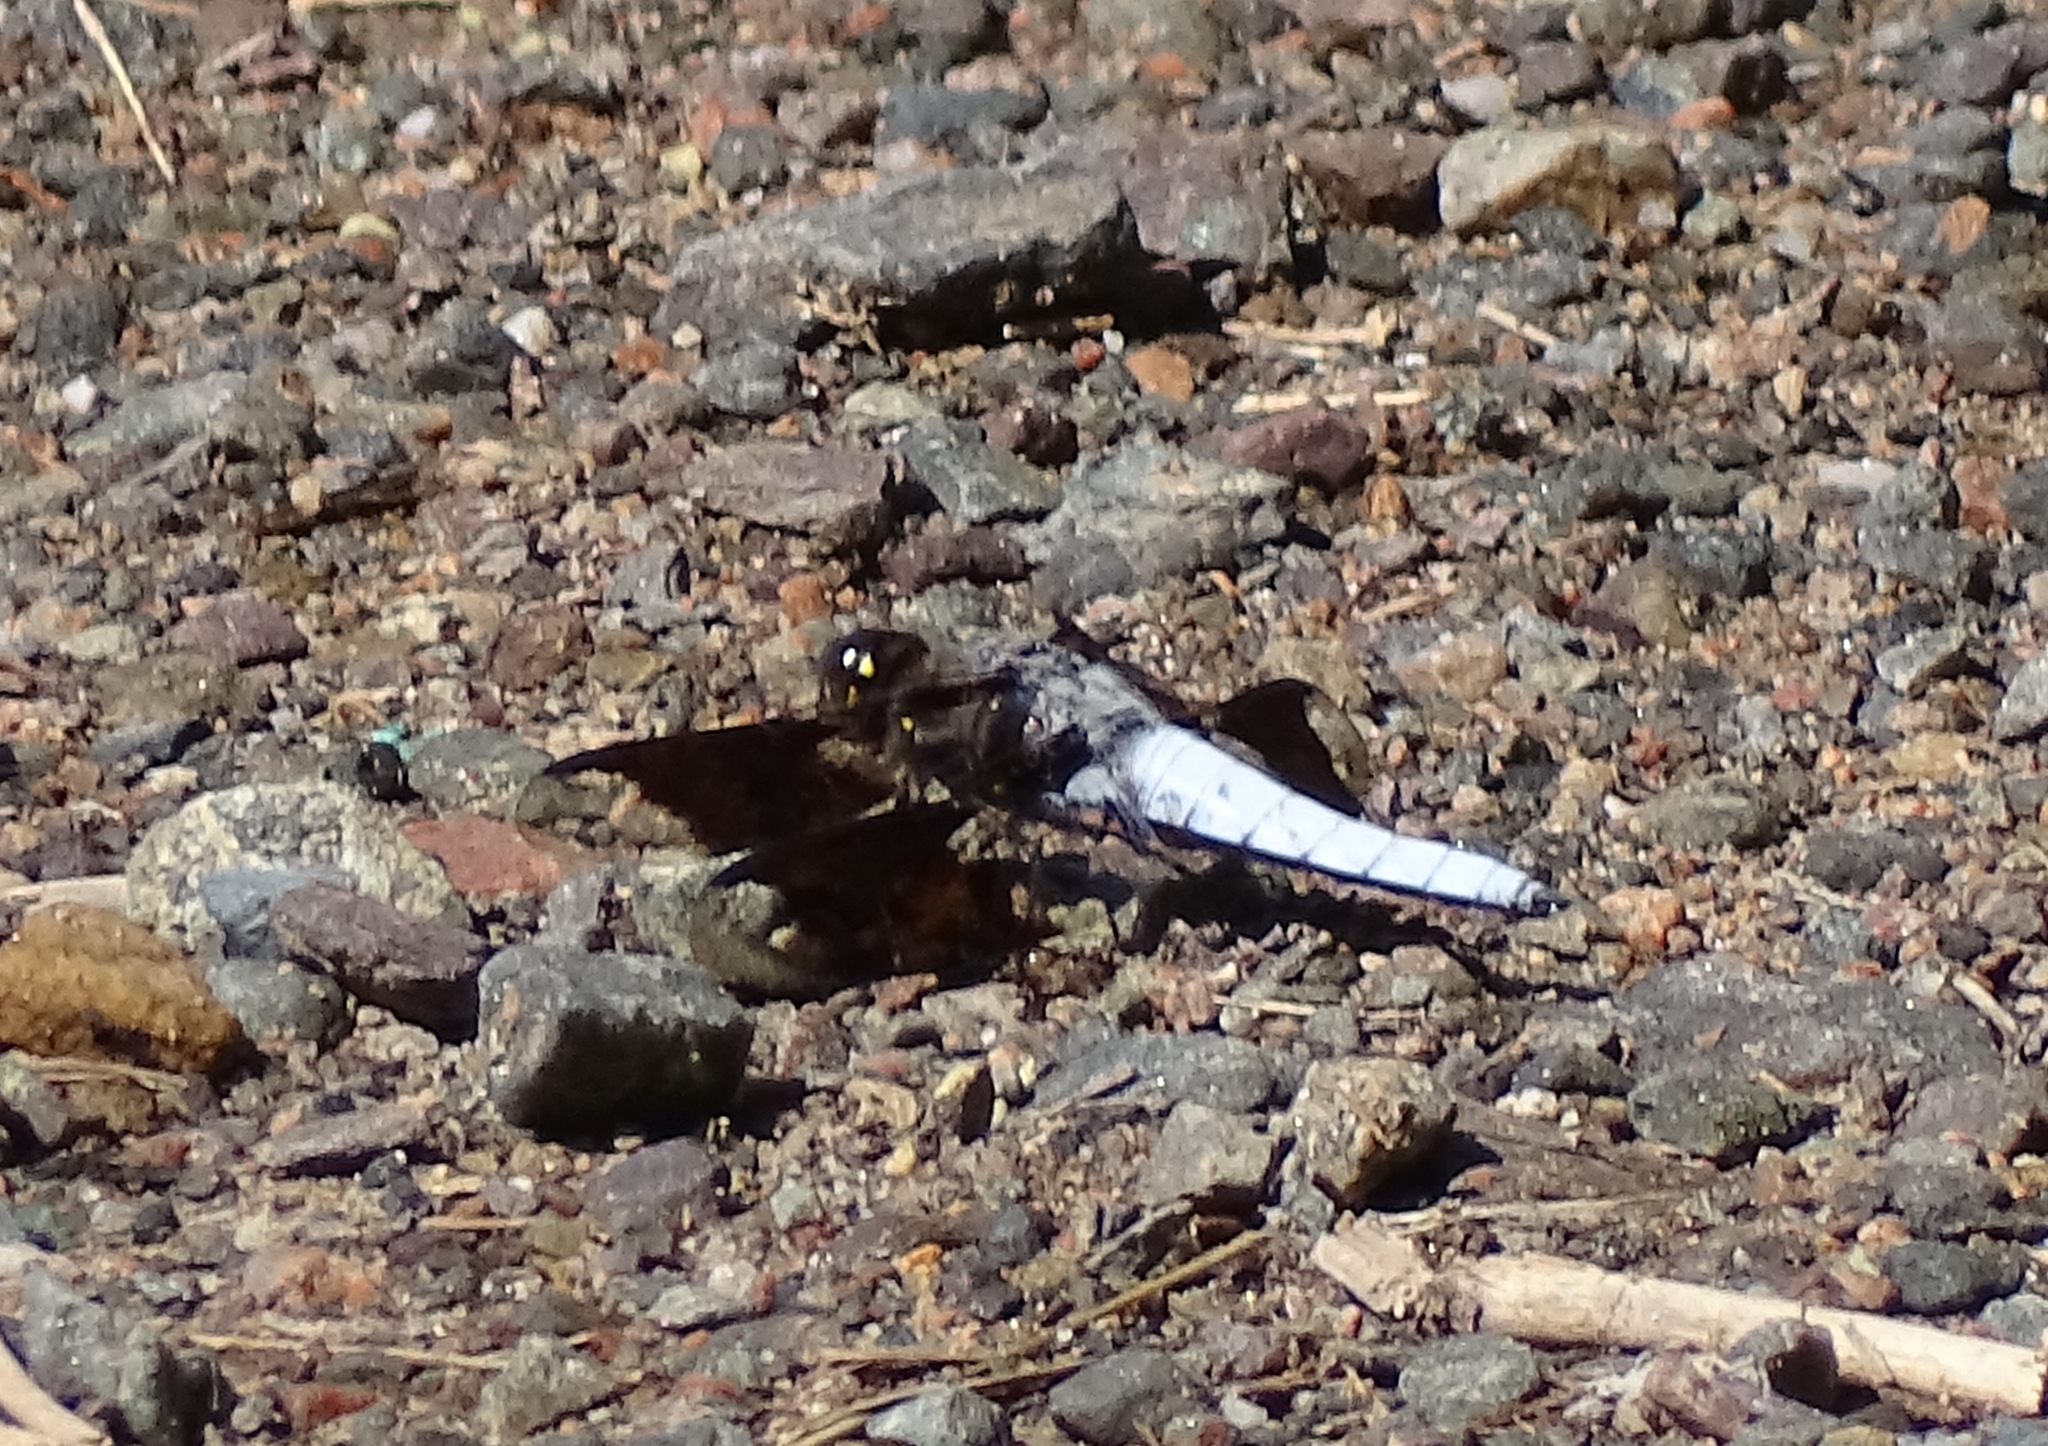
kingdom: Animalia
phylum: Arthropoda
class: Insecta
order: Odonata
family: Libellulidae
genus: Plathemis
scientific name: Plathemis lydia
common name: Common whitetail
